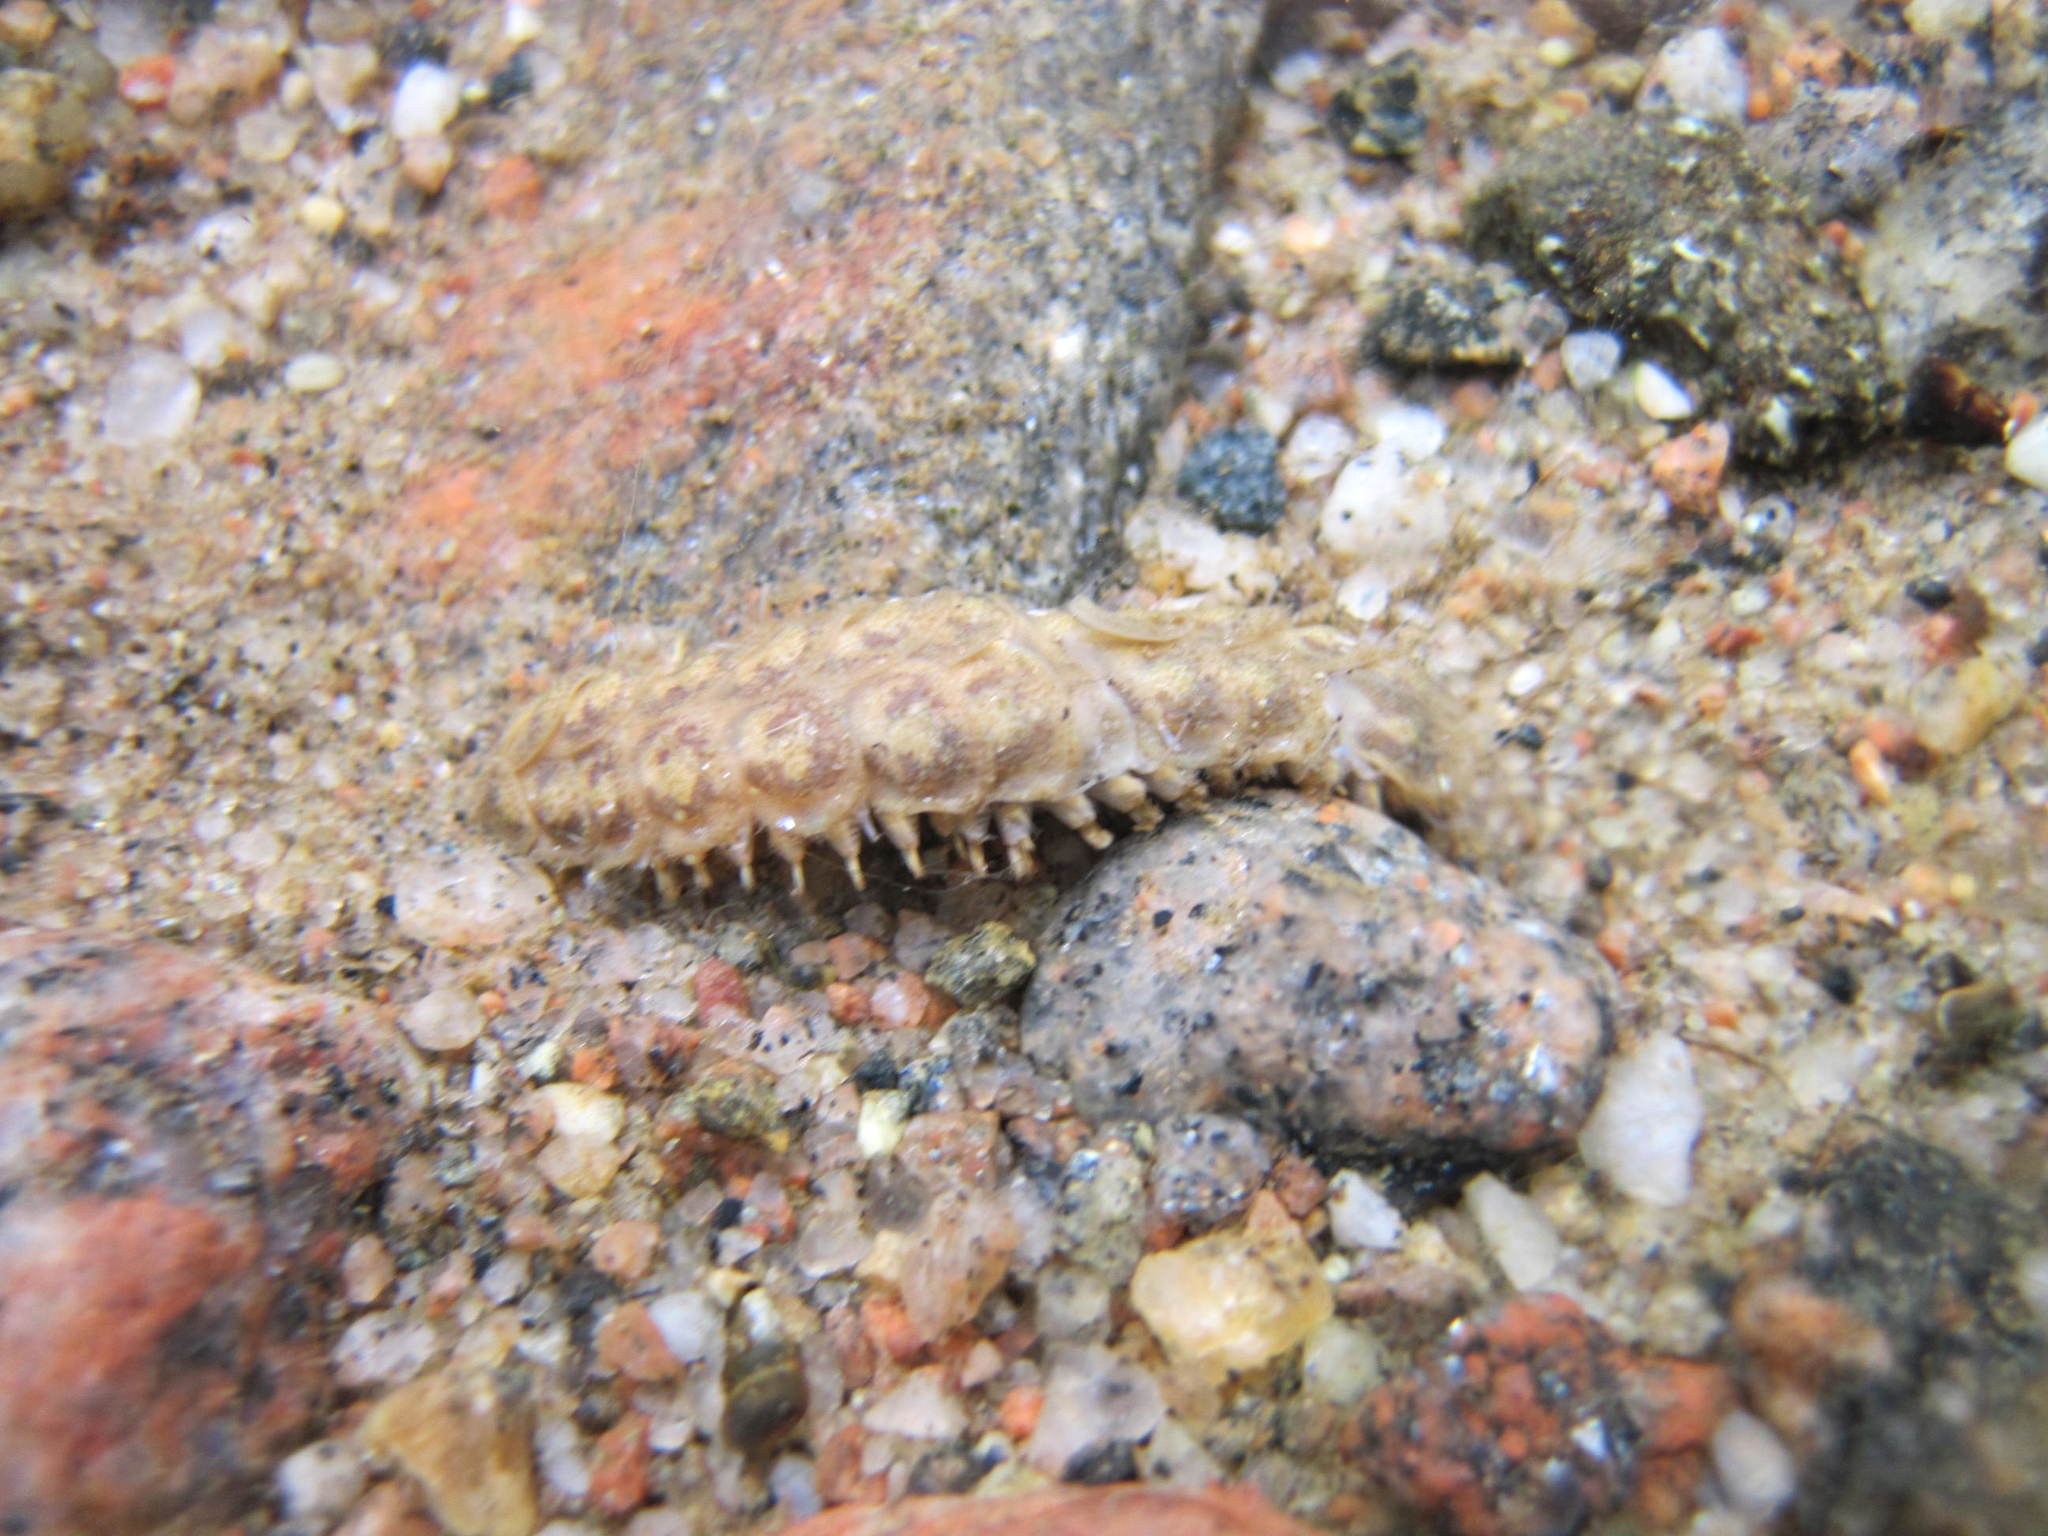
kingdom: Animalia
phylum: Annelida
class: Polychaeta
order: Phyllodocida
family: Polynoidae
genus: Lepidonotus
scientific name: Lepidonotus squamatus
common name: Twelve-scaled worm
